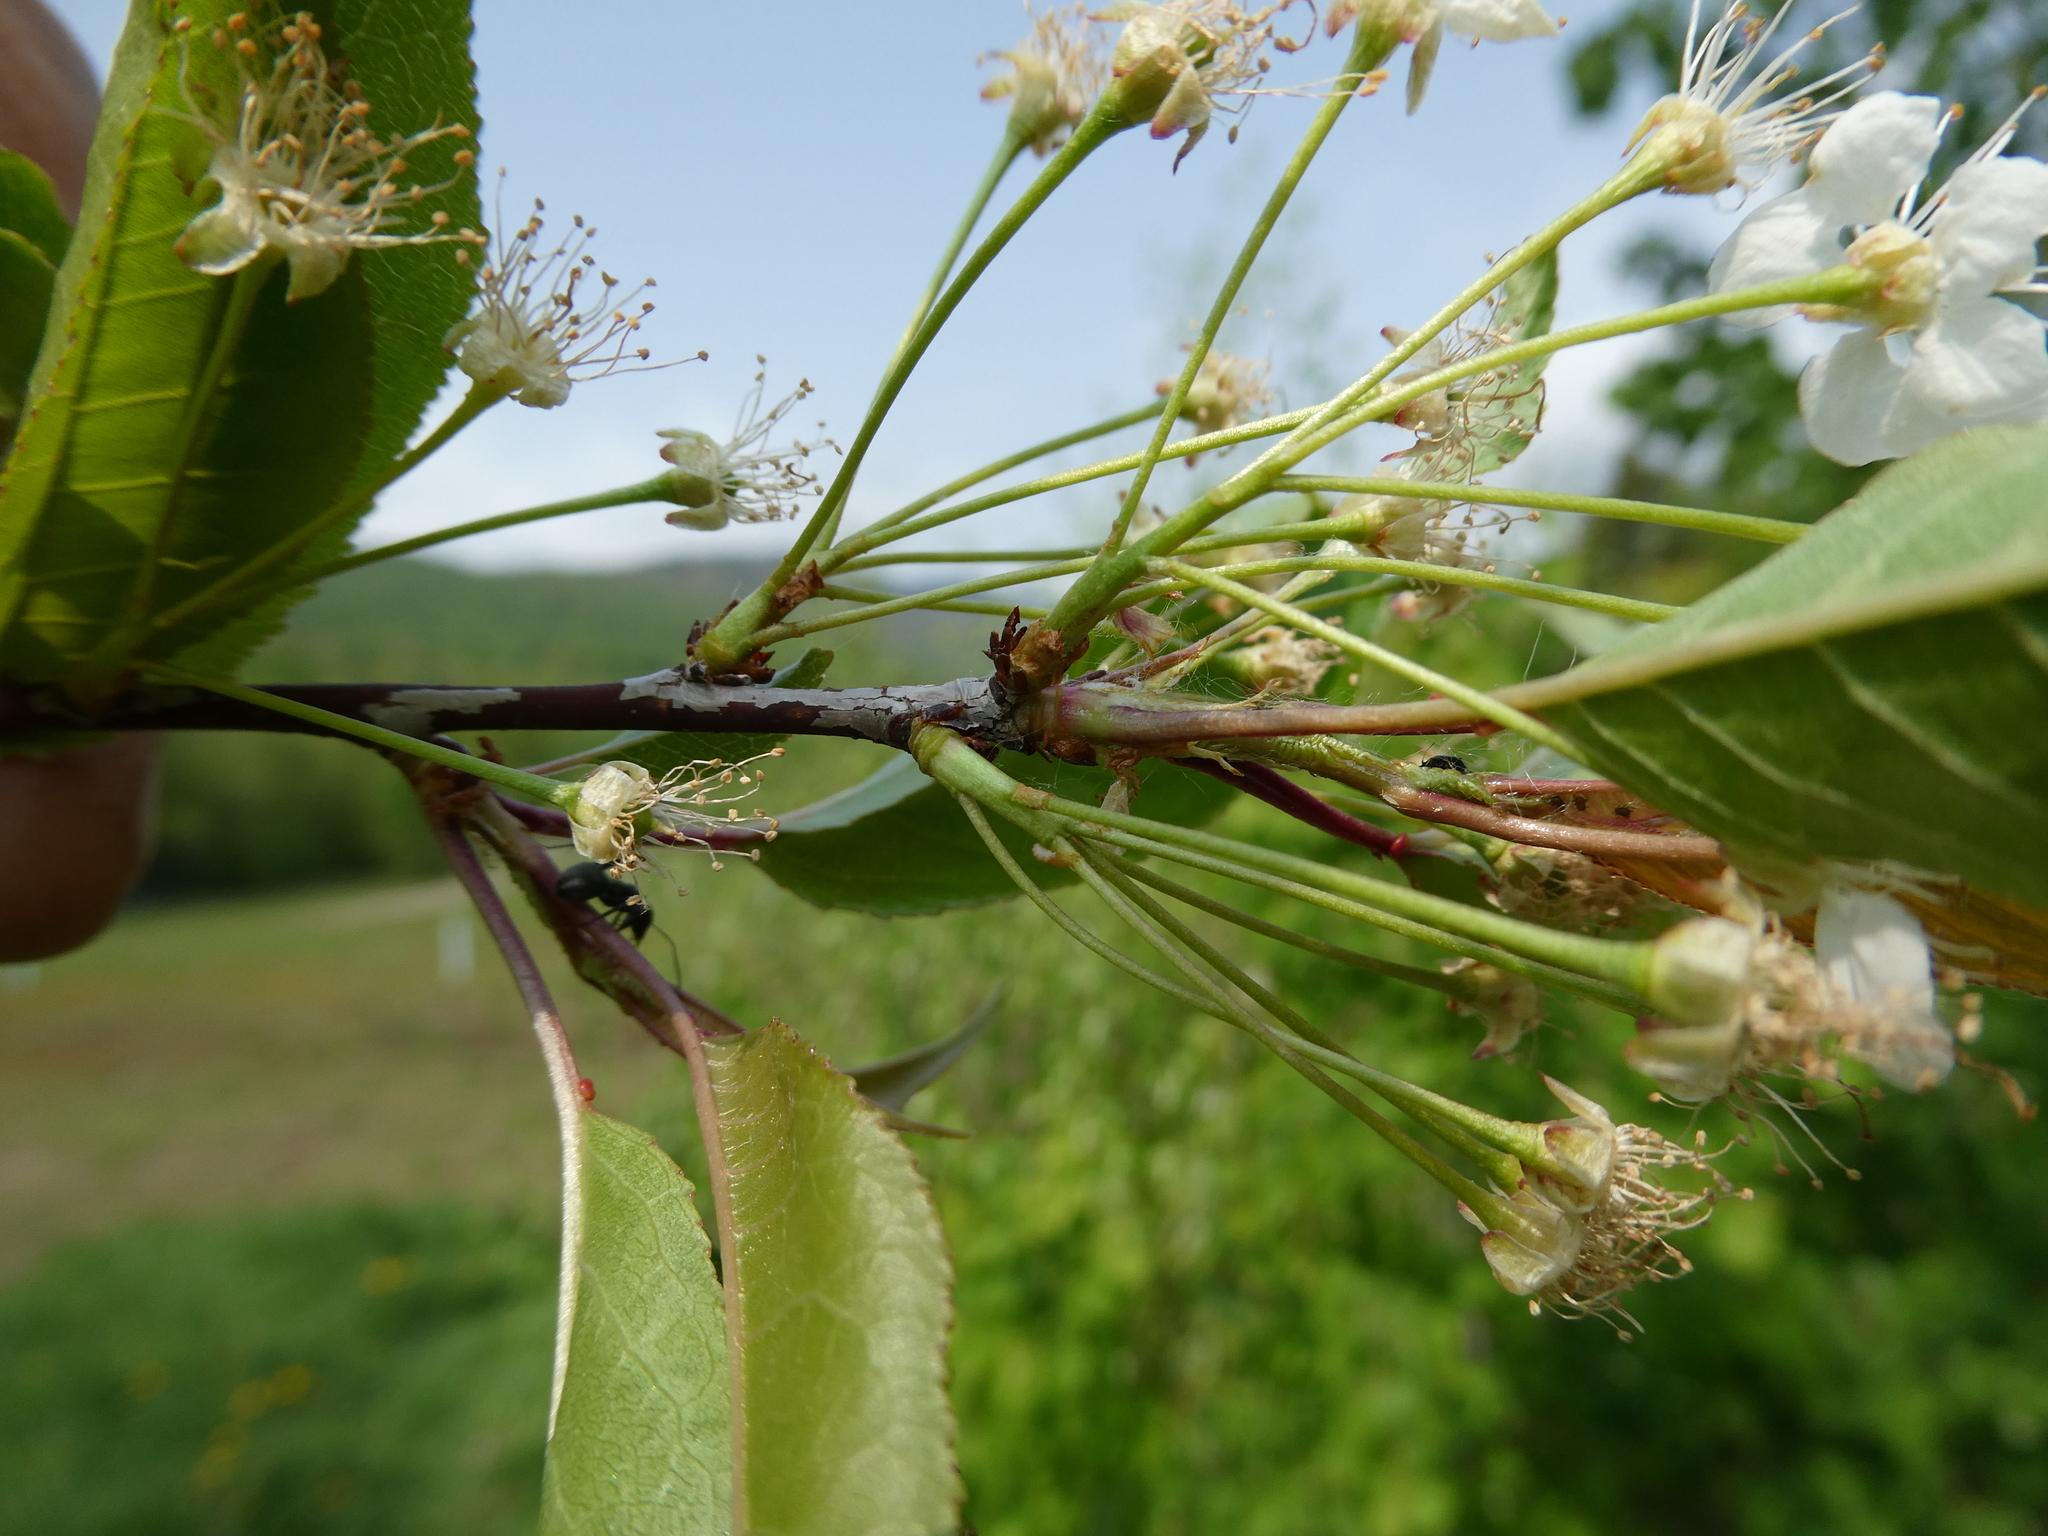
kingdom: Plantae
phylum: Tracheophyta
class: Magnoliopsida
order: Rosales
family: Rosaceae
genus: Prunus
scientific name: Prunus pensylvanica
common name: Pin cherry
